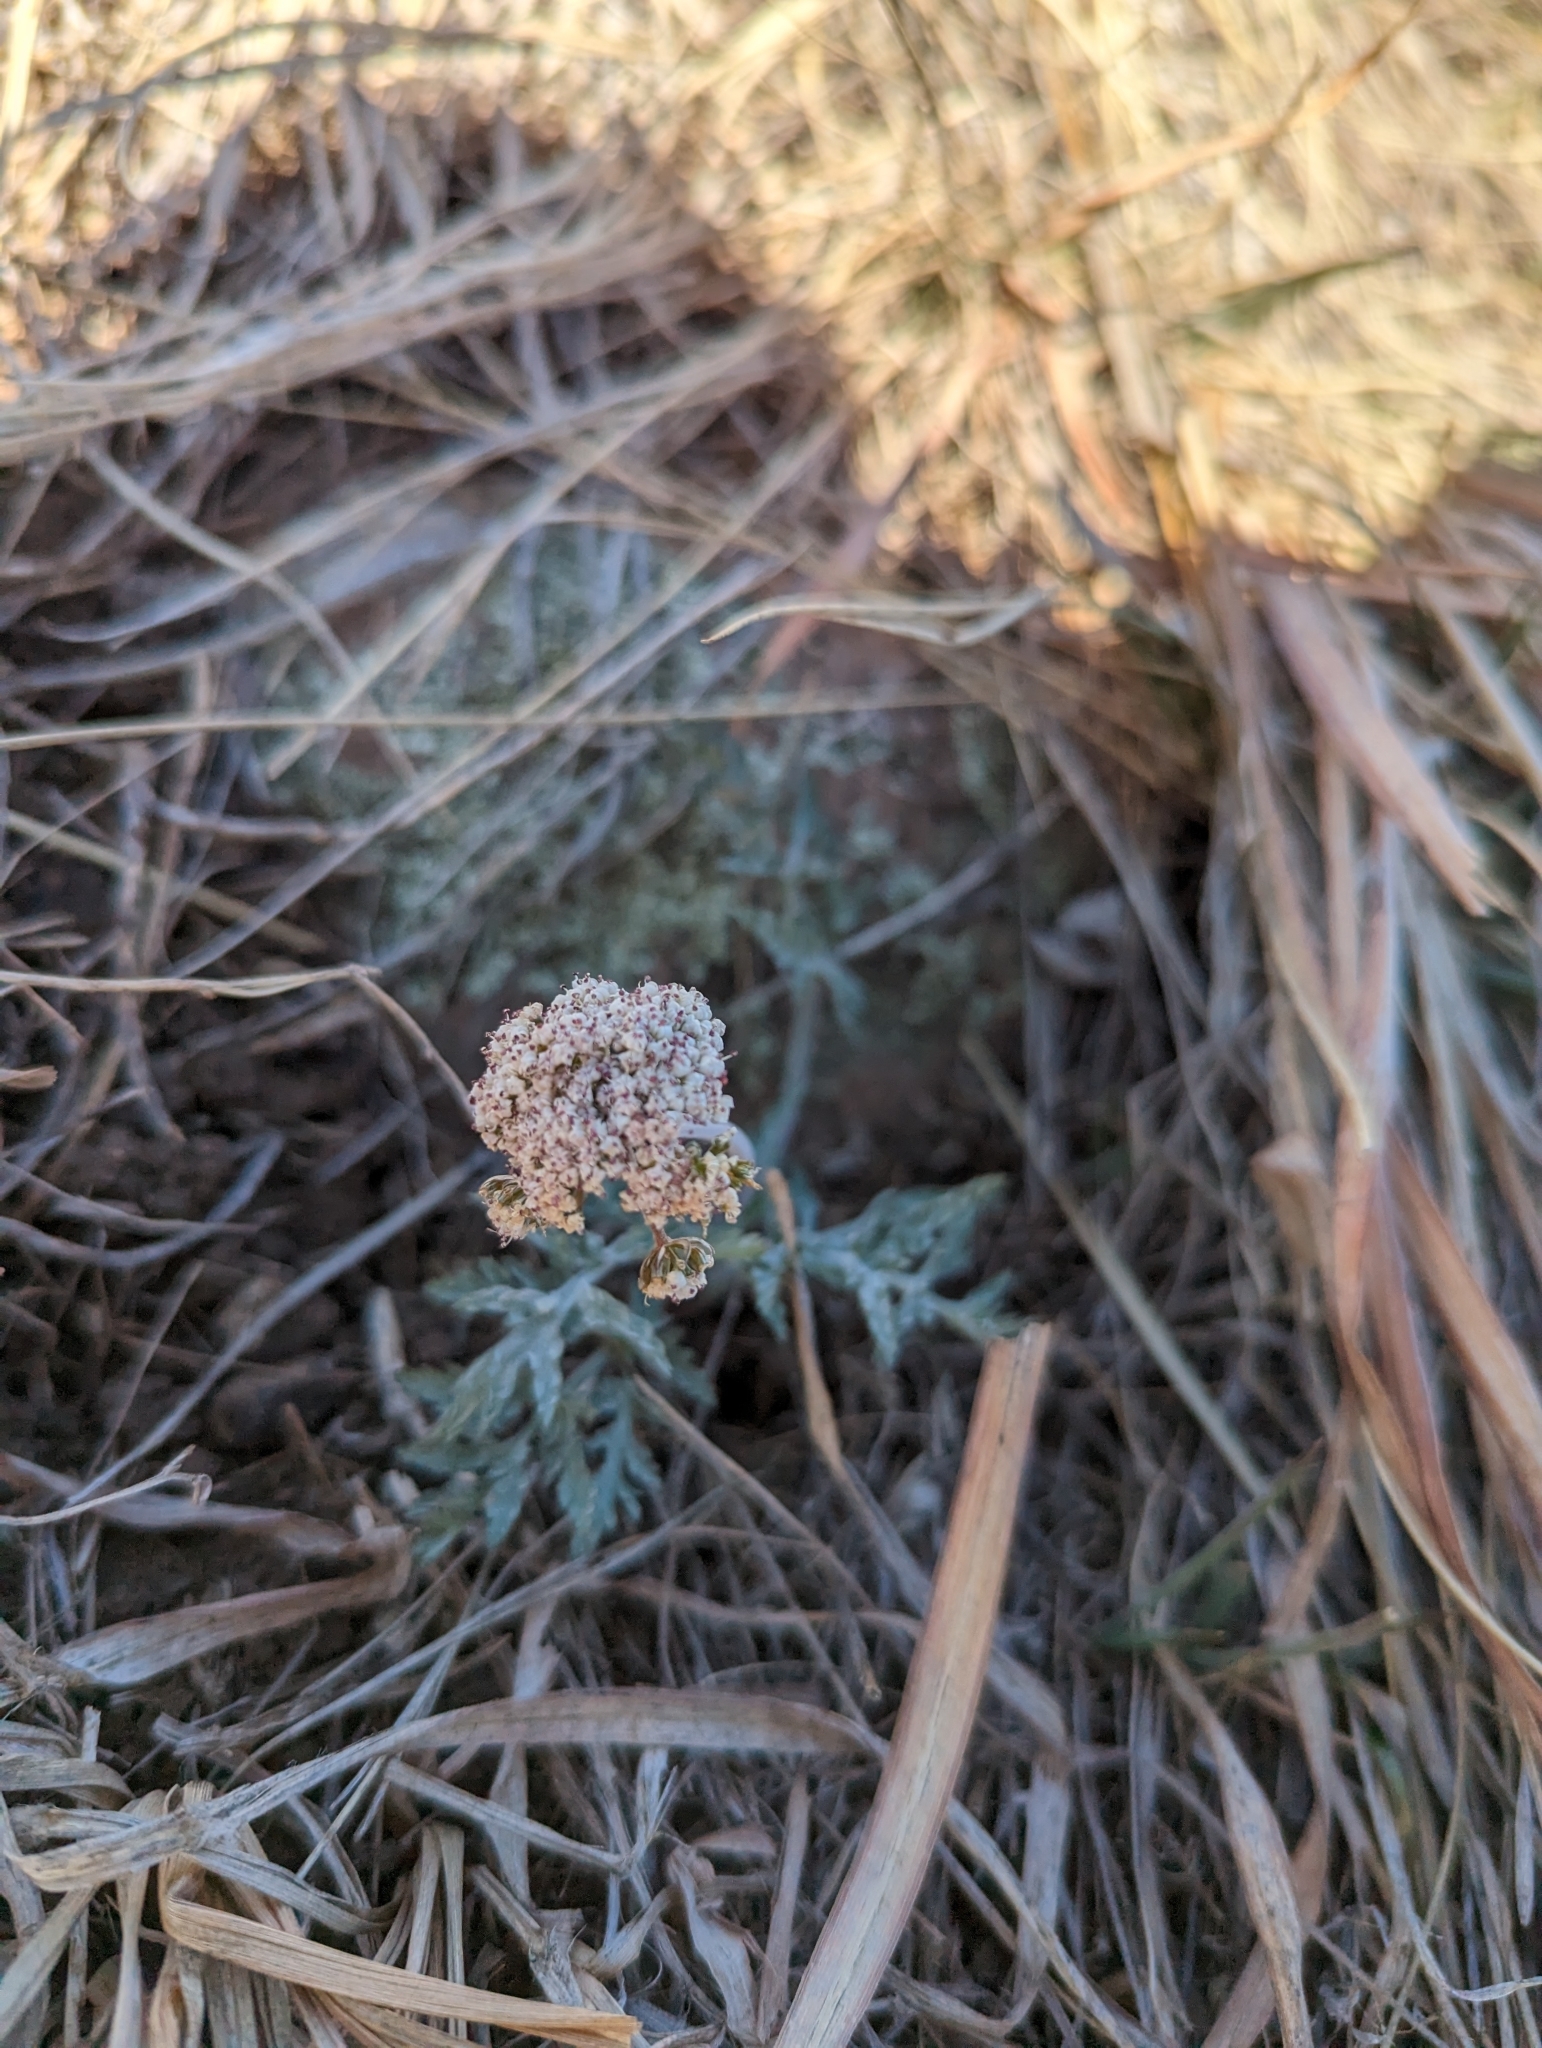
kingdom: Plantae
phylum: Tracheophyta
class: Magnoliopsida
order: Apiales
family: Apiaceae
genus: Lomatium
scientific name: Lomatium orientale
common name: Eastern cous
